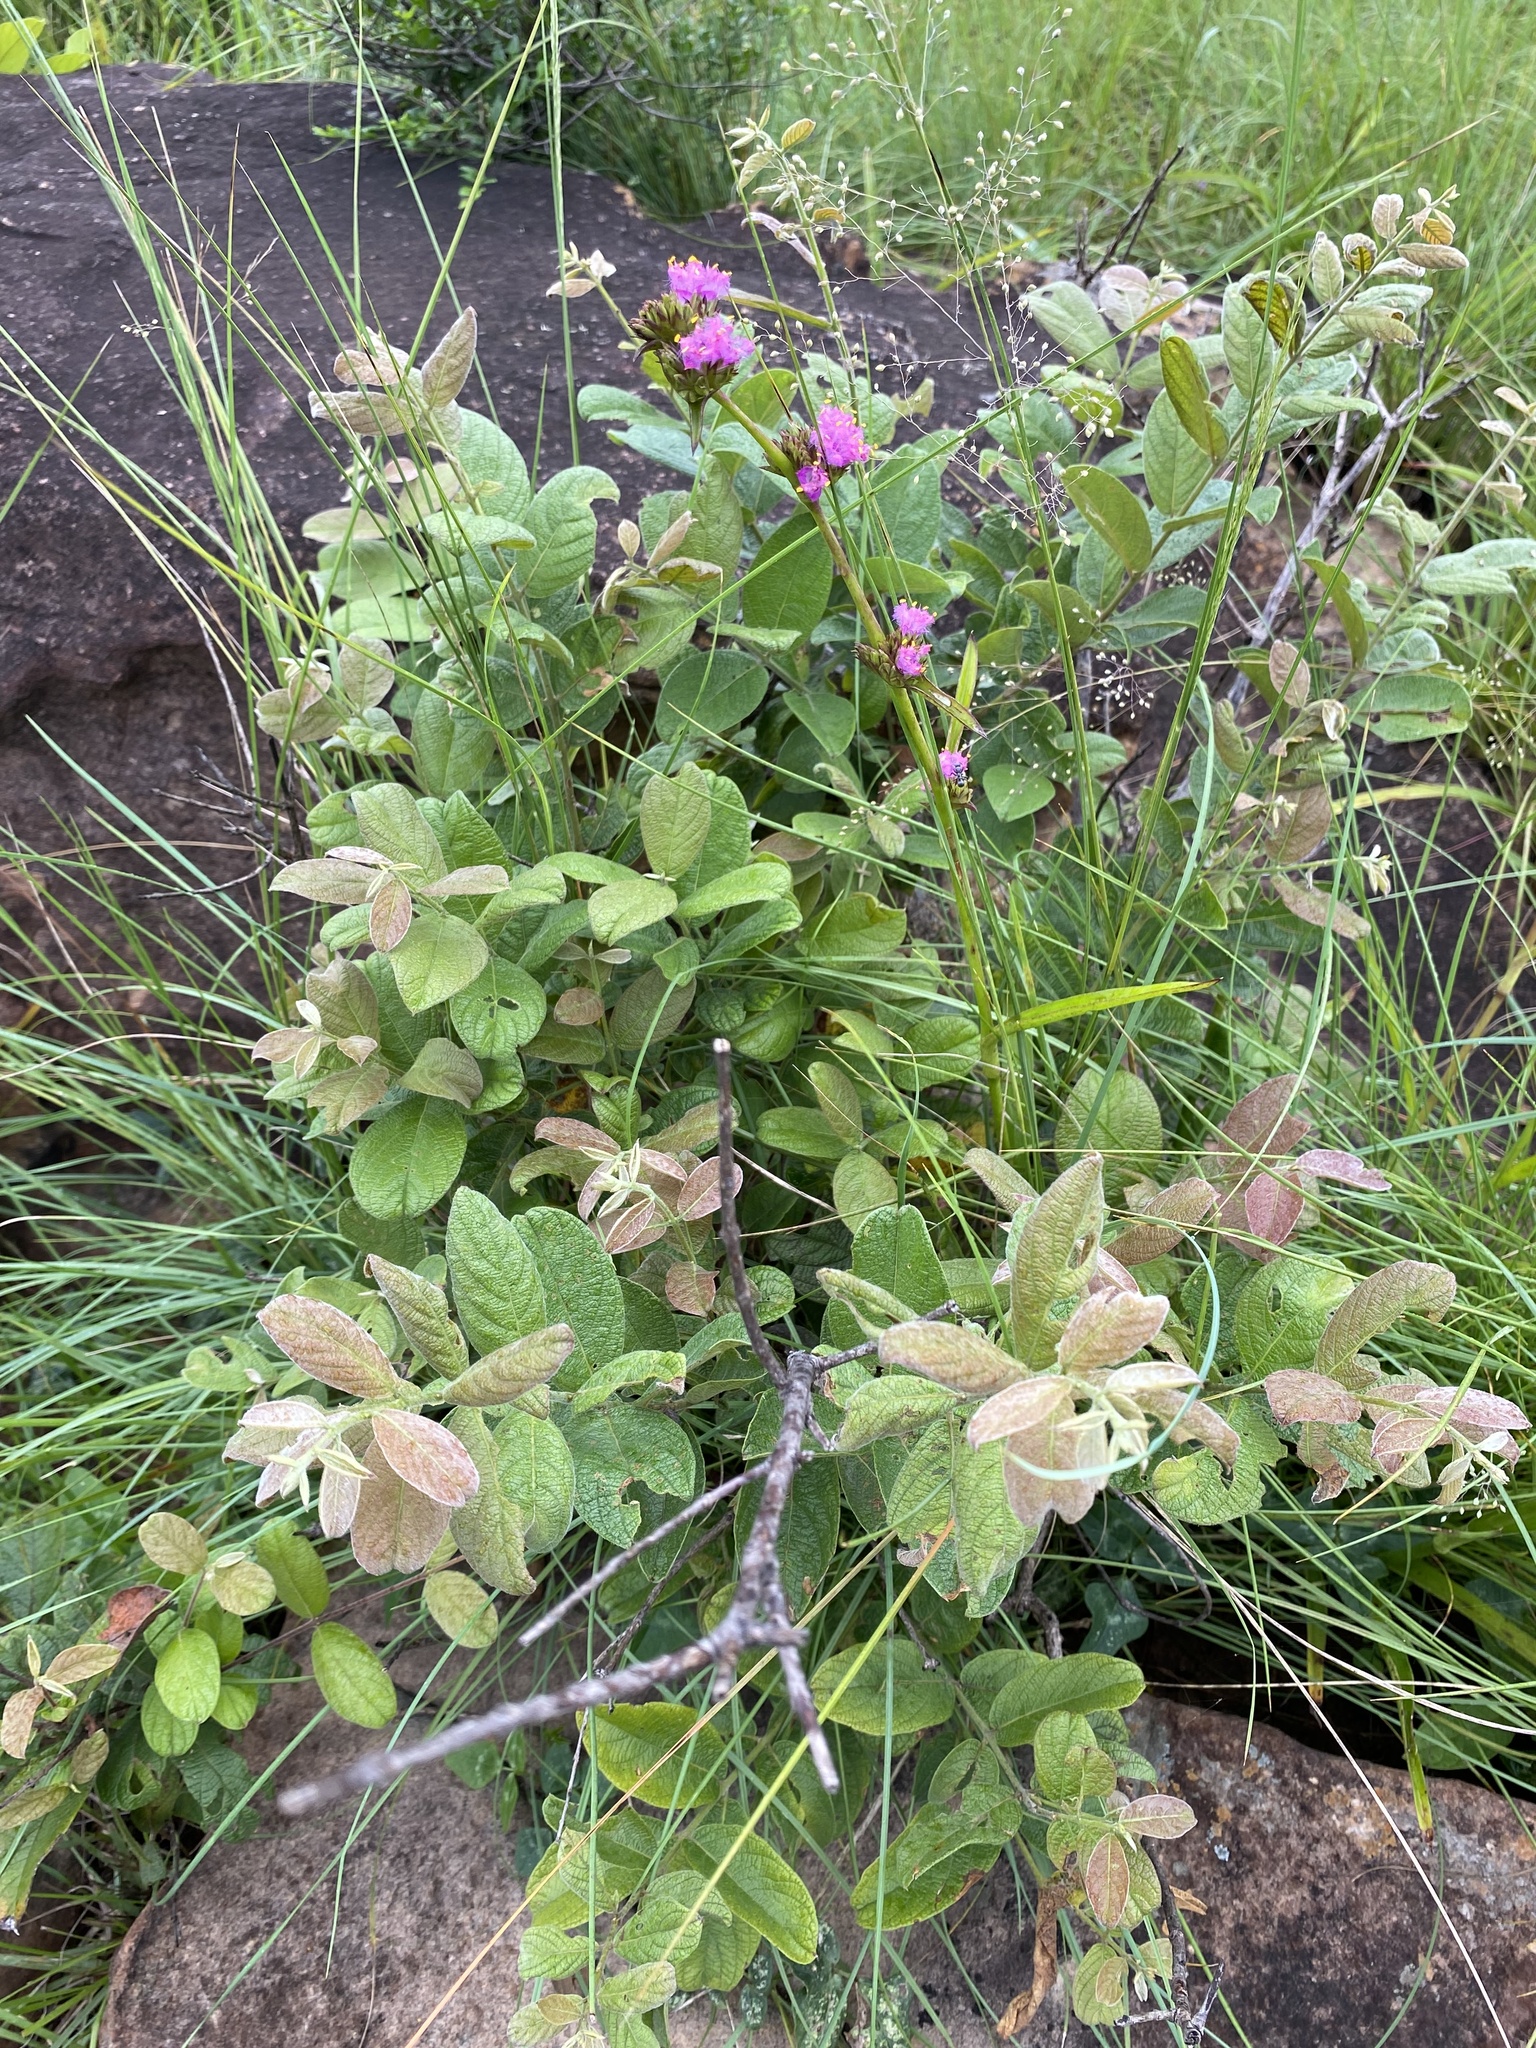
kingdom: Plantae
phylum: Tracheophyta
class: Magnoliopsida
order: Myrtales
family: Combretaceae
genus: Combretum
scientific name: Combretum molle
